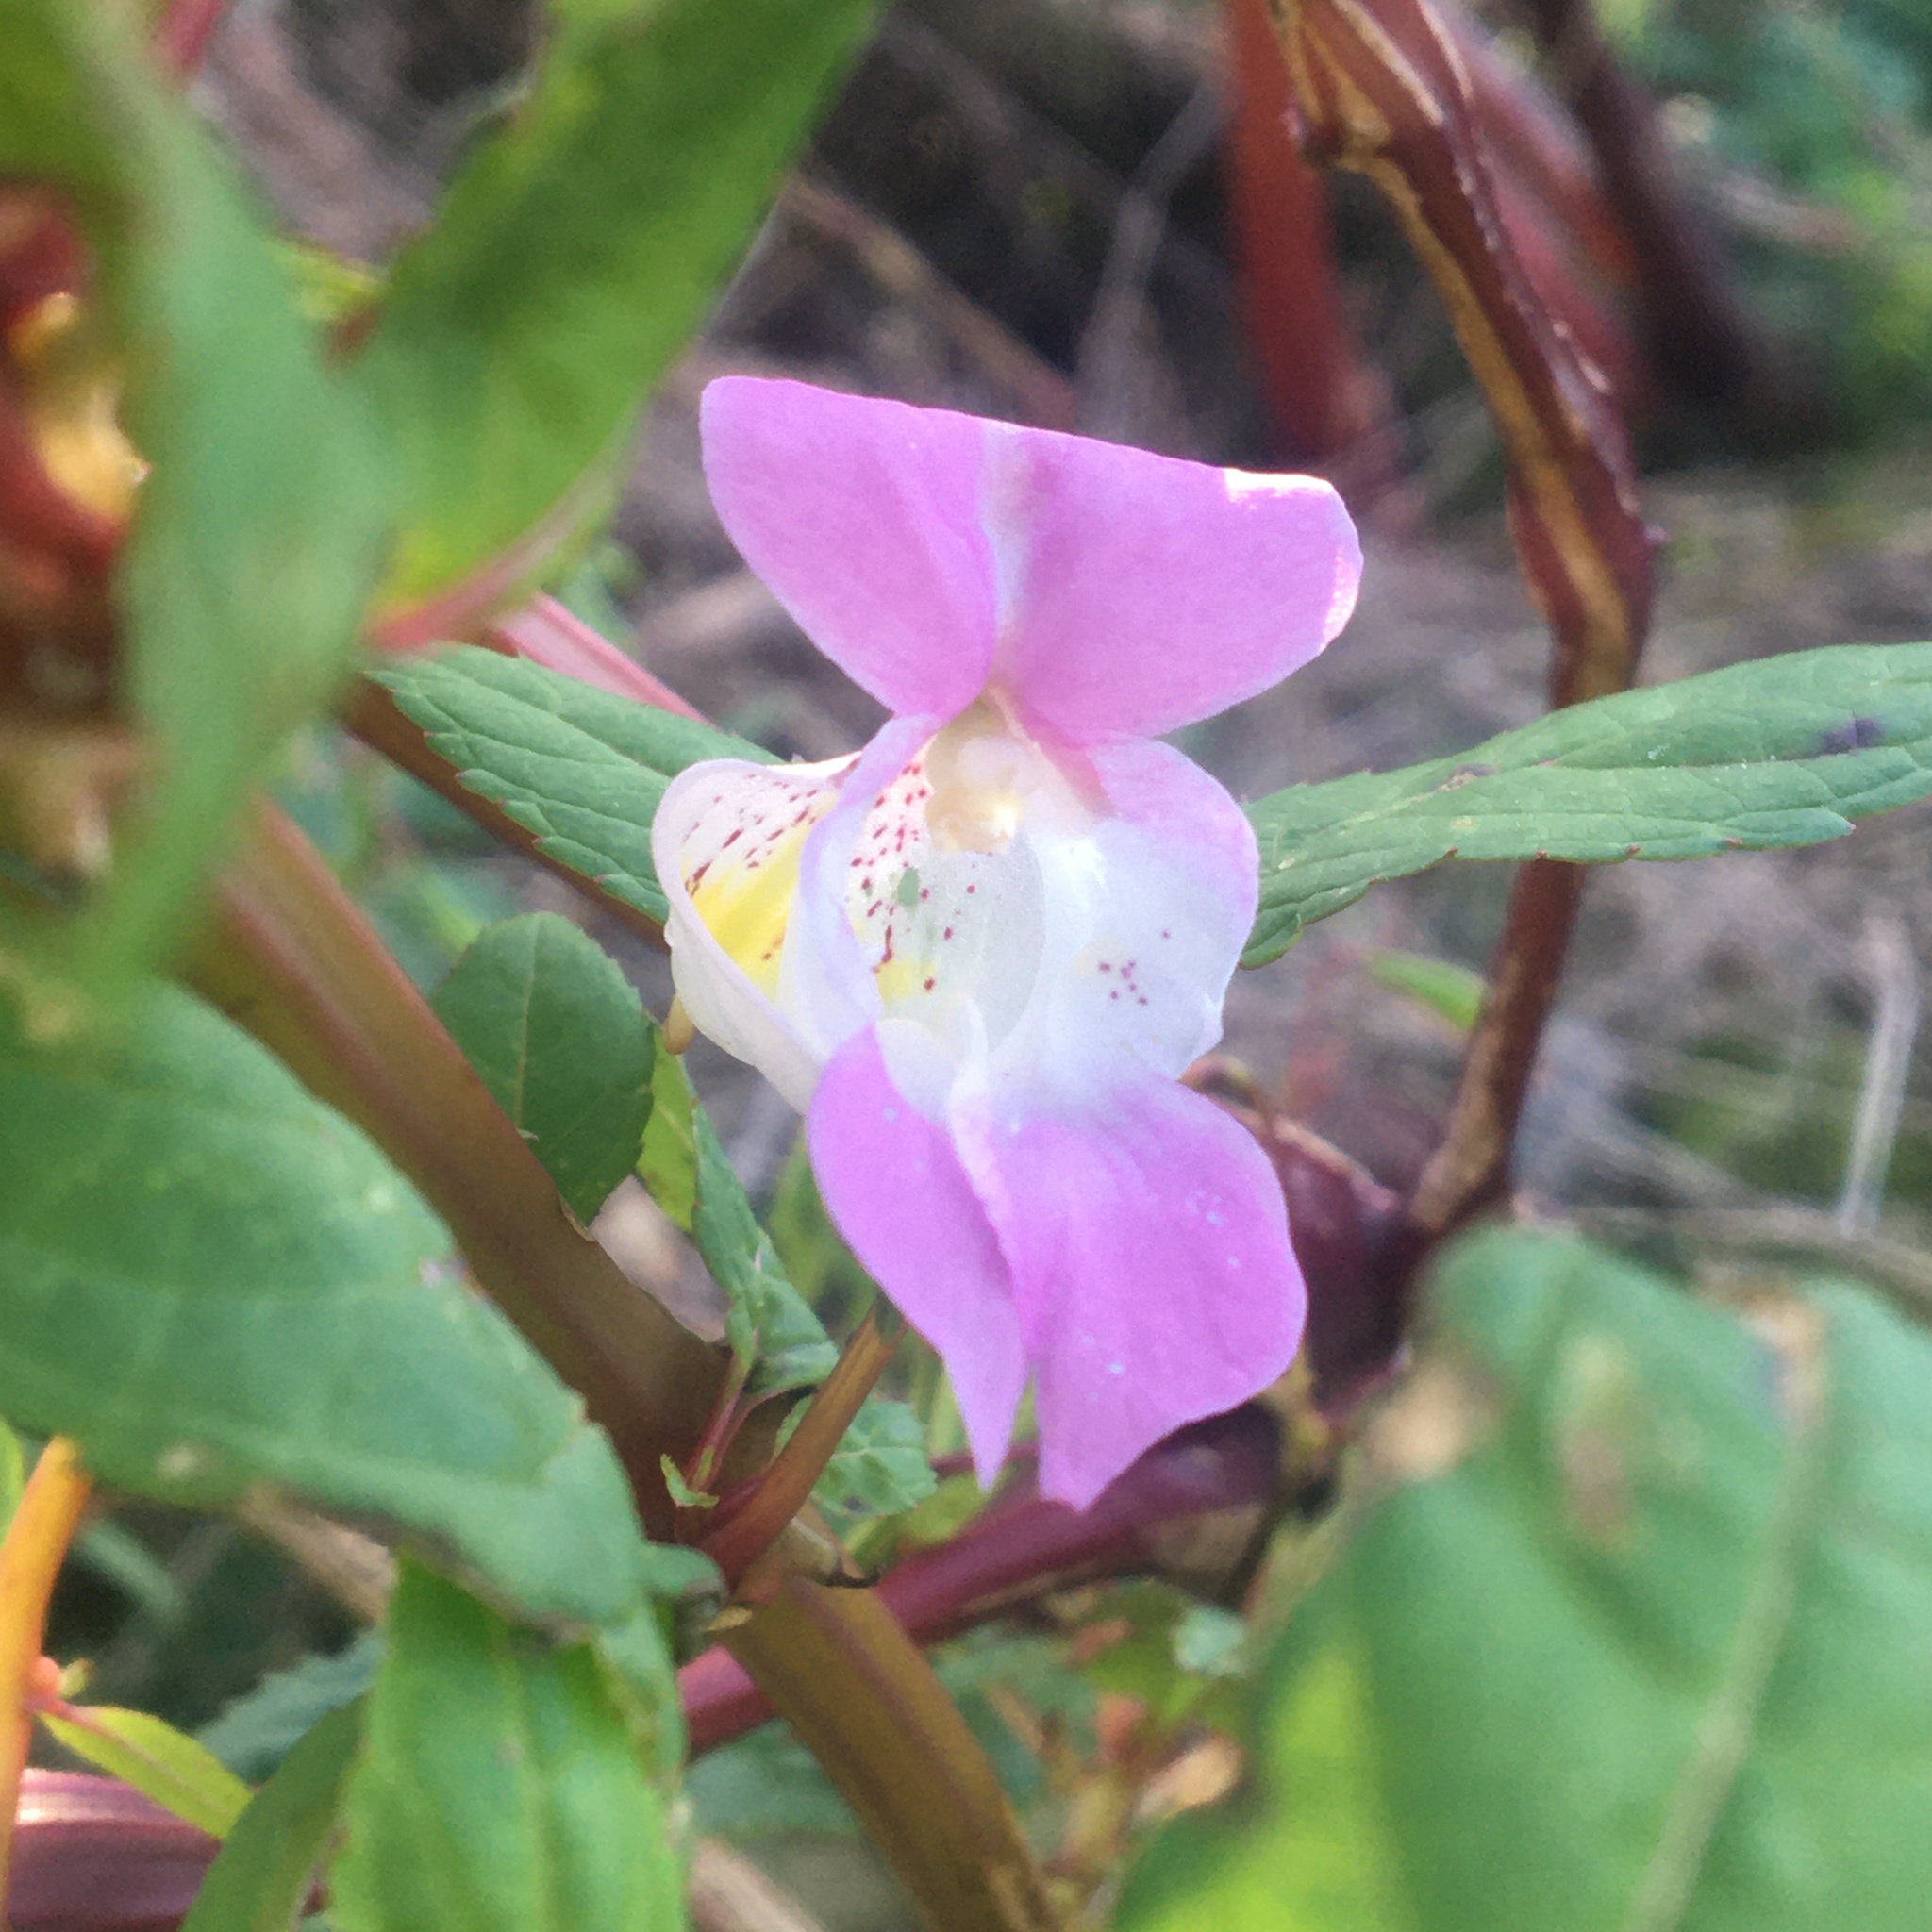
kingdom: Plantae
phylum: Tracheophyta
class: Magnoliopsida
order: Ericales
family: Balsaminaceae
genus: Impatiens
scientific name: Impatiens glandulifera
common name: Himalayan balsam
